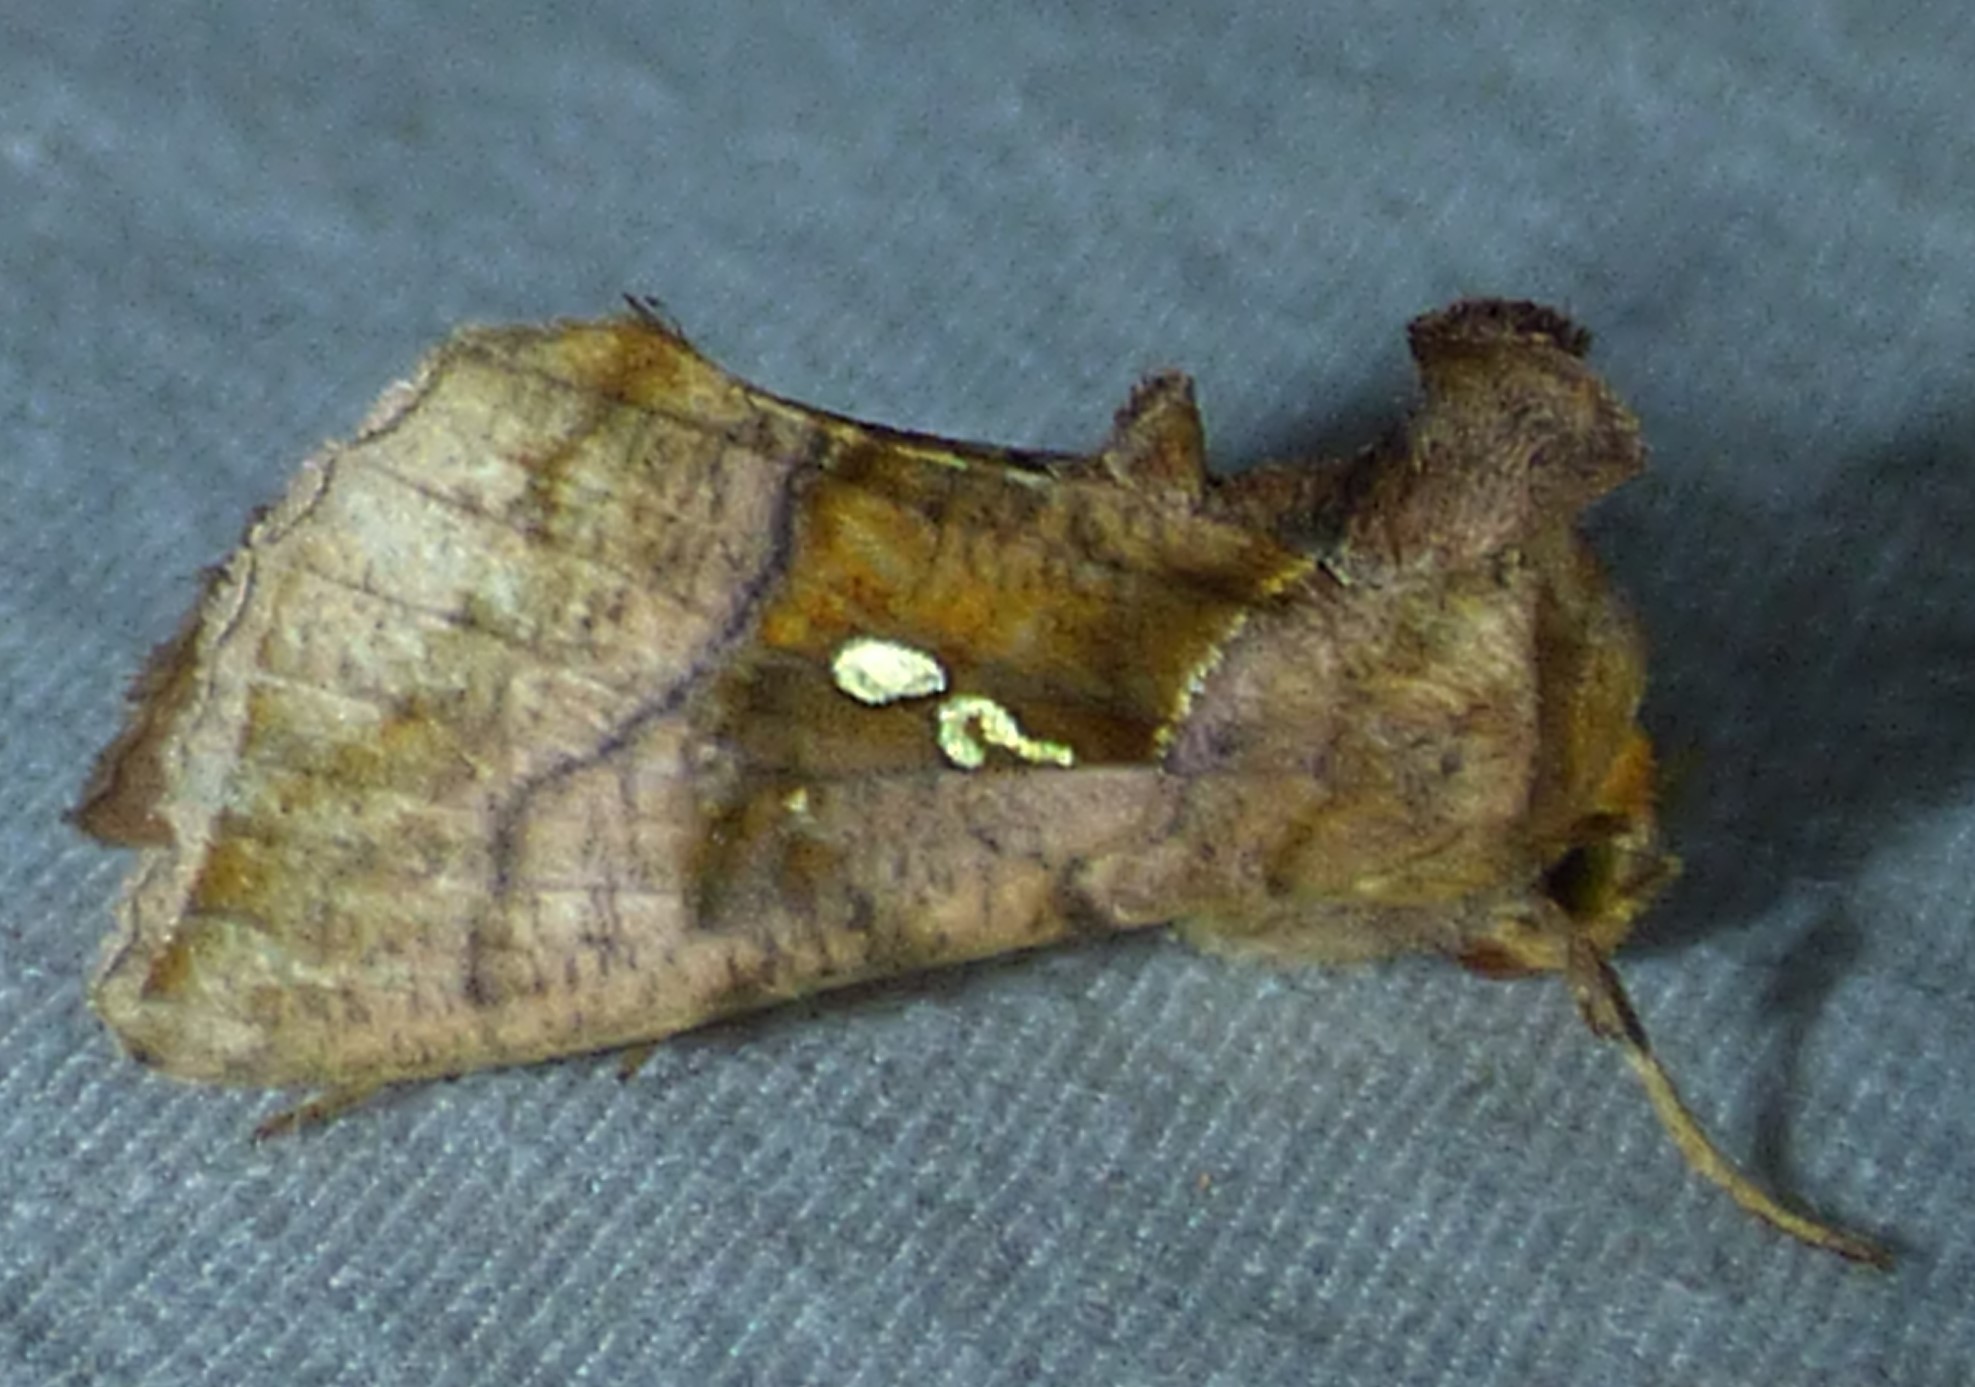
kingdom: Animalia
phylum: Arthropoda
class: Insecta
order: Lepidoptera
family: Noctuidae
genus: Enigmogramma
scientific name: Enigmogramma basigera
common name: Pink-washed looper moth
